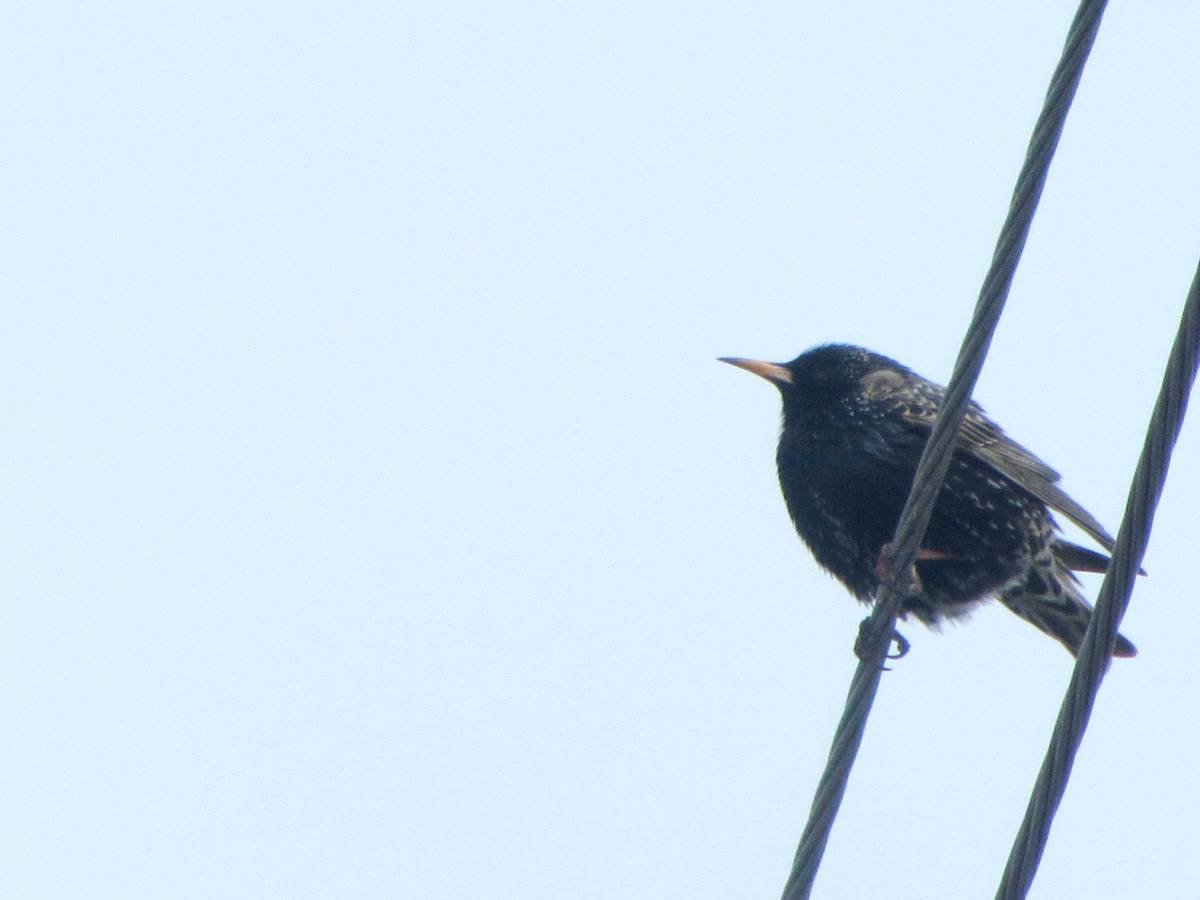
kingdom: Animalia
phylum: Chordata
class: Aves
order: Passeriformes
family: Sturnidae
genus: Sturnus
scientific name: Sturnus vulgaris
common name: Common starling
